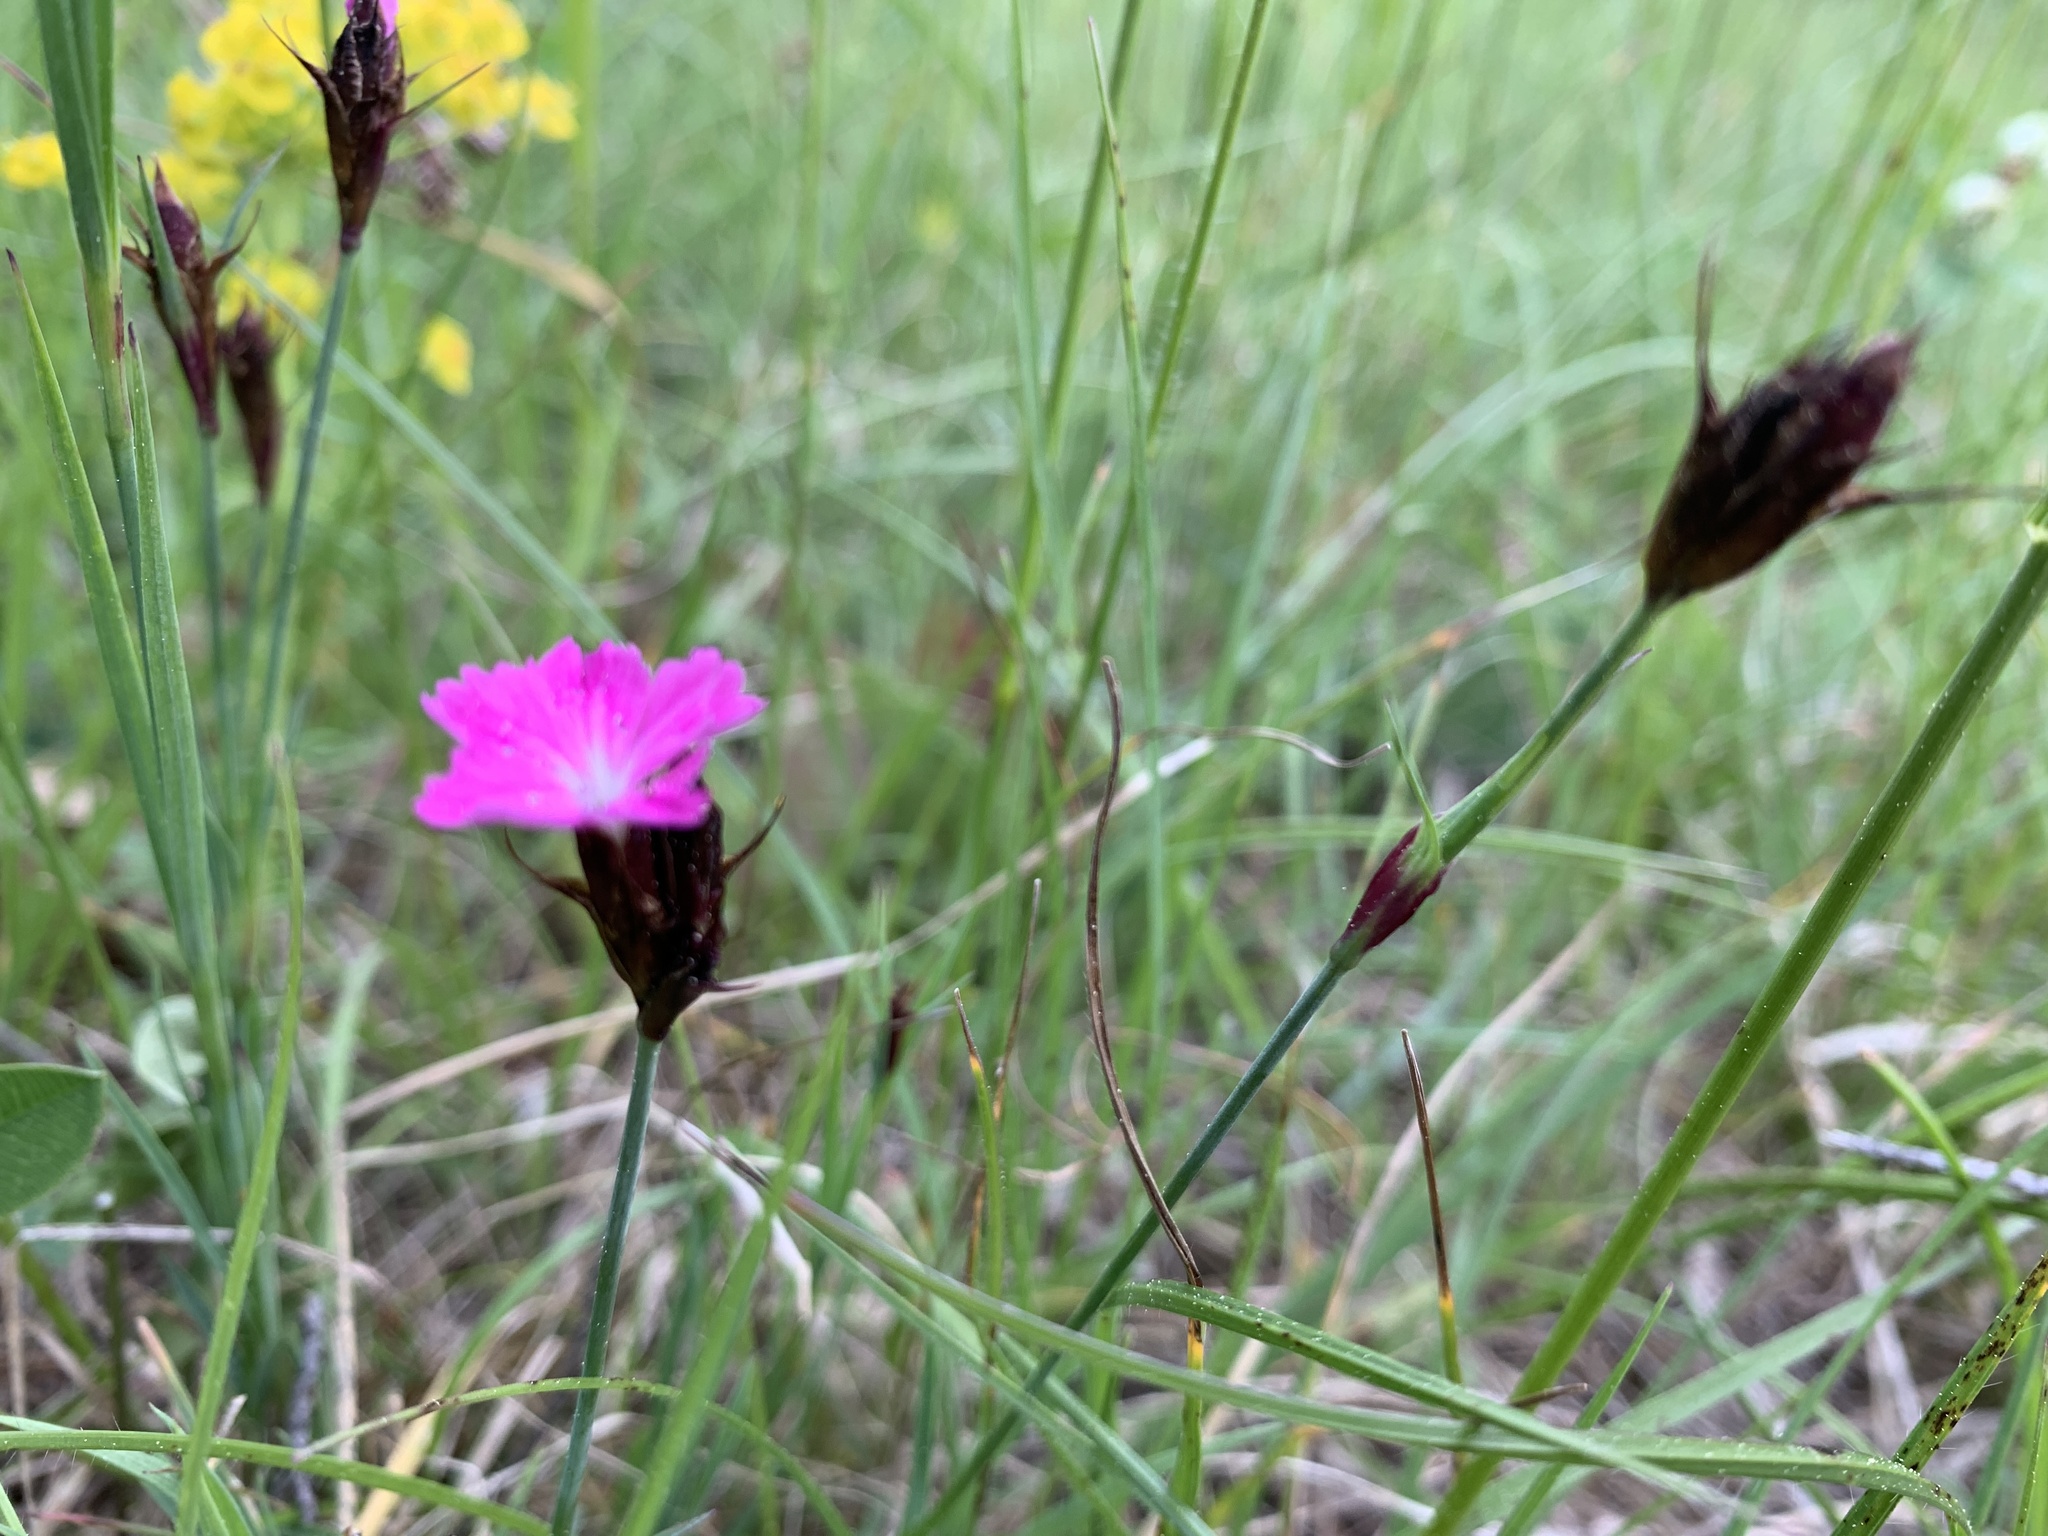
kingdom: Plantae
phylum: Tracheophyta
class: Magnoliopsida
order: Caryophyllales
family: Caryophyllaceae
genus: Dianthus
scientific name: Dianthus carthusianorum
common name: Carthusian pink
